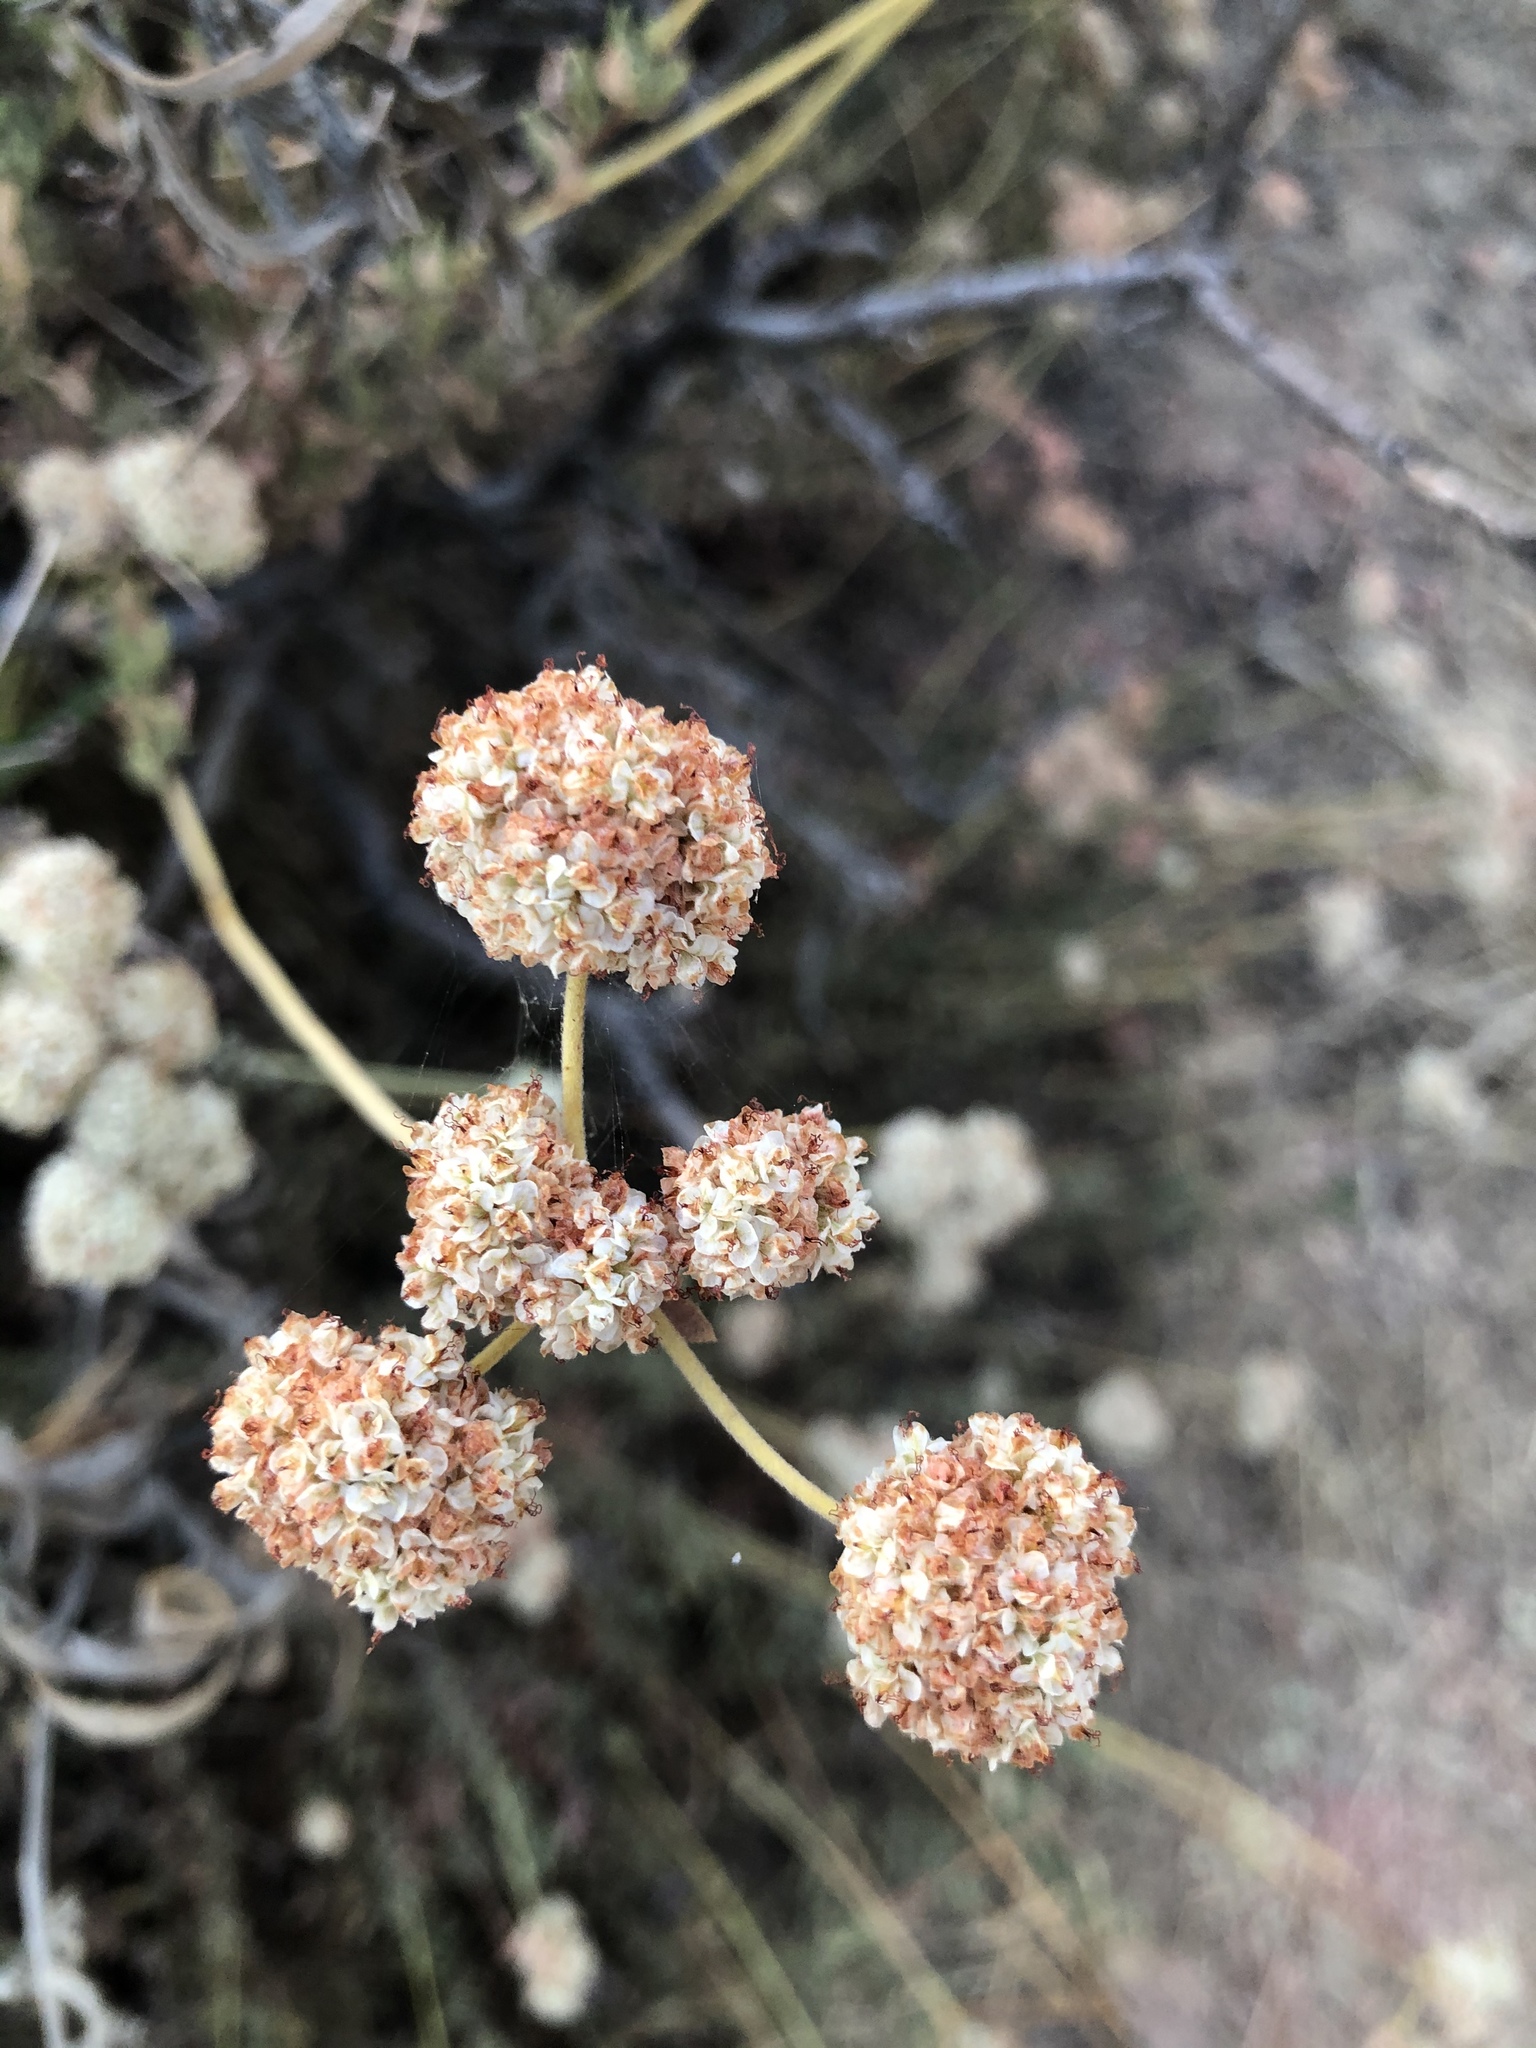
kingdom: Plantae
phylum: Tracheophyta
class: Magnoliopsida
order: Caryophyllales
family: Polygonaceae
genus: Eriogonum
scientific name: Eriogonum fasciculatum
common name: California wild buckwheat
